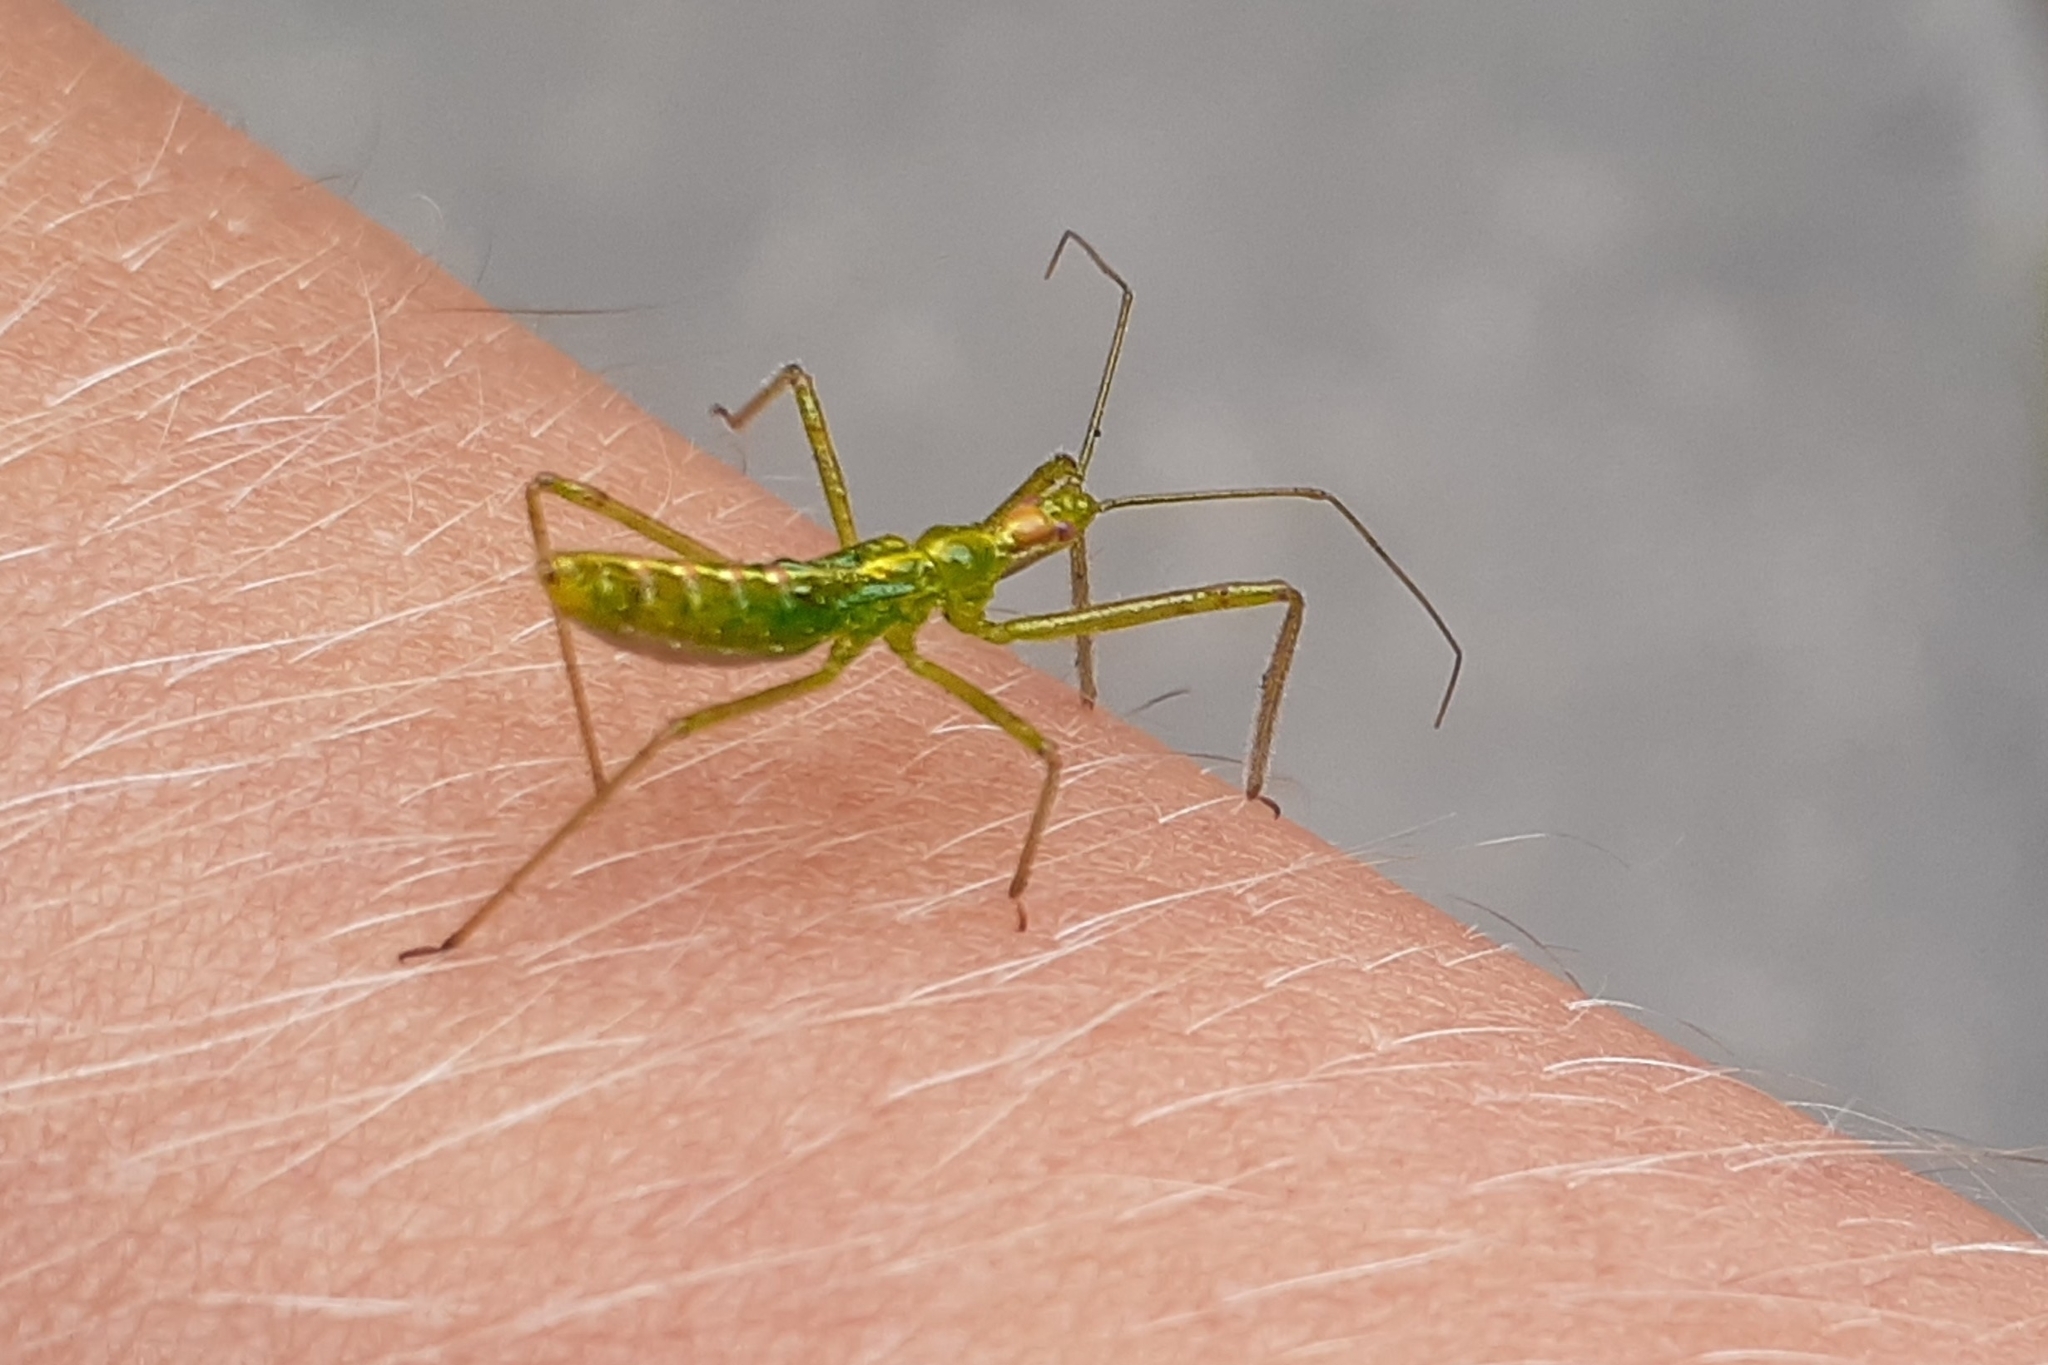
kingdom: Animalia
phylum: Arthropoda
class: Insecta
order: Hemiptera
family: Reduviidae
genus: Zelus
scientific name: Zelus luridus
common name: Pale green assassin bug
